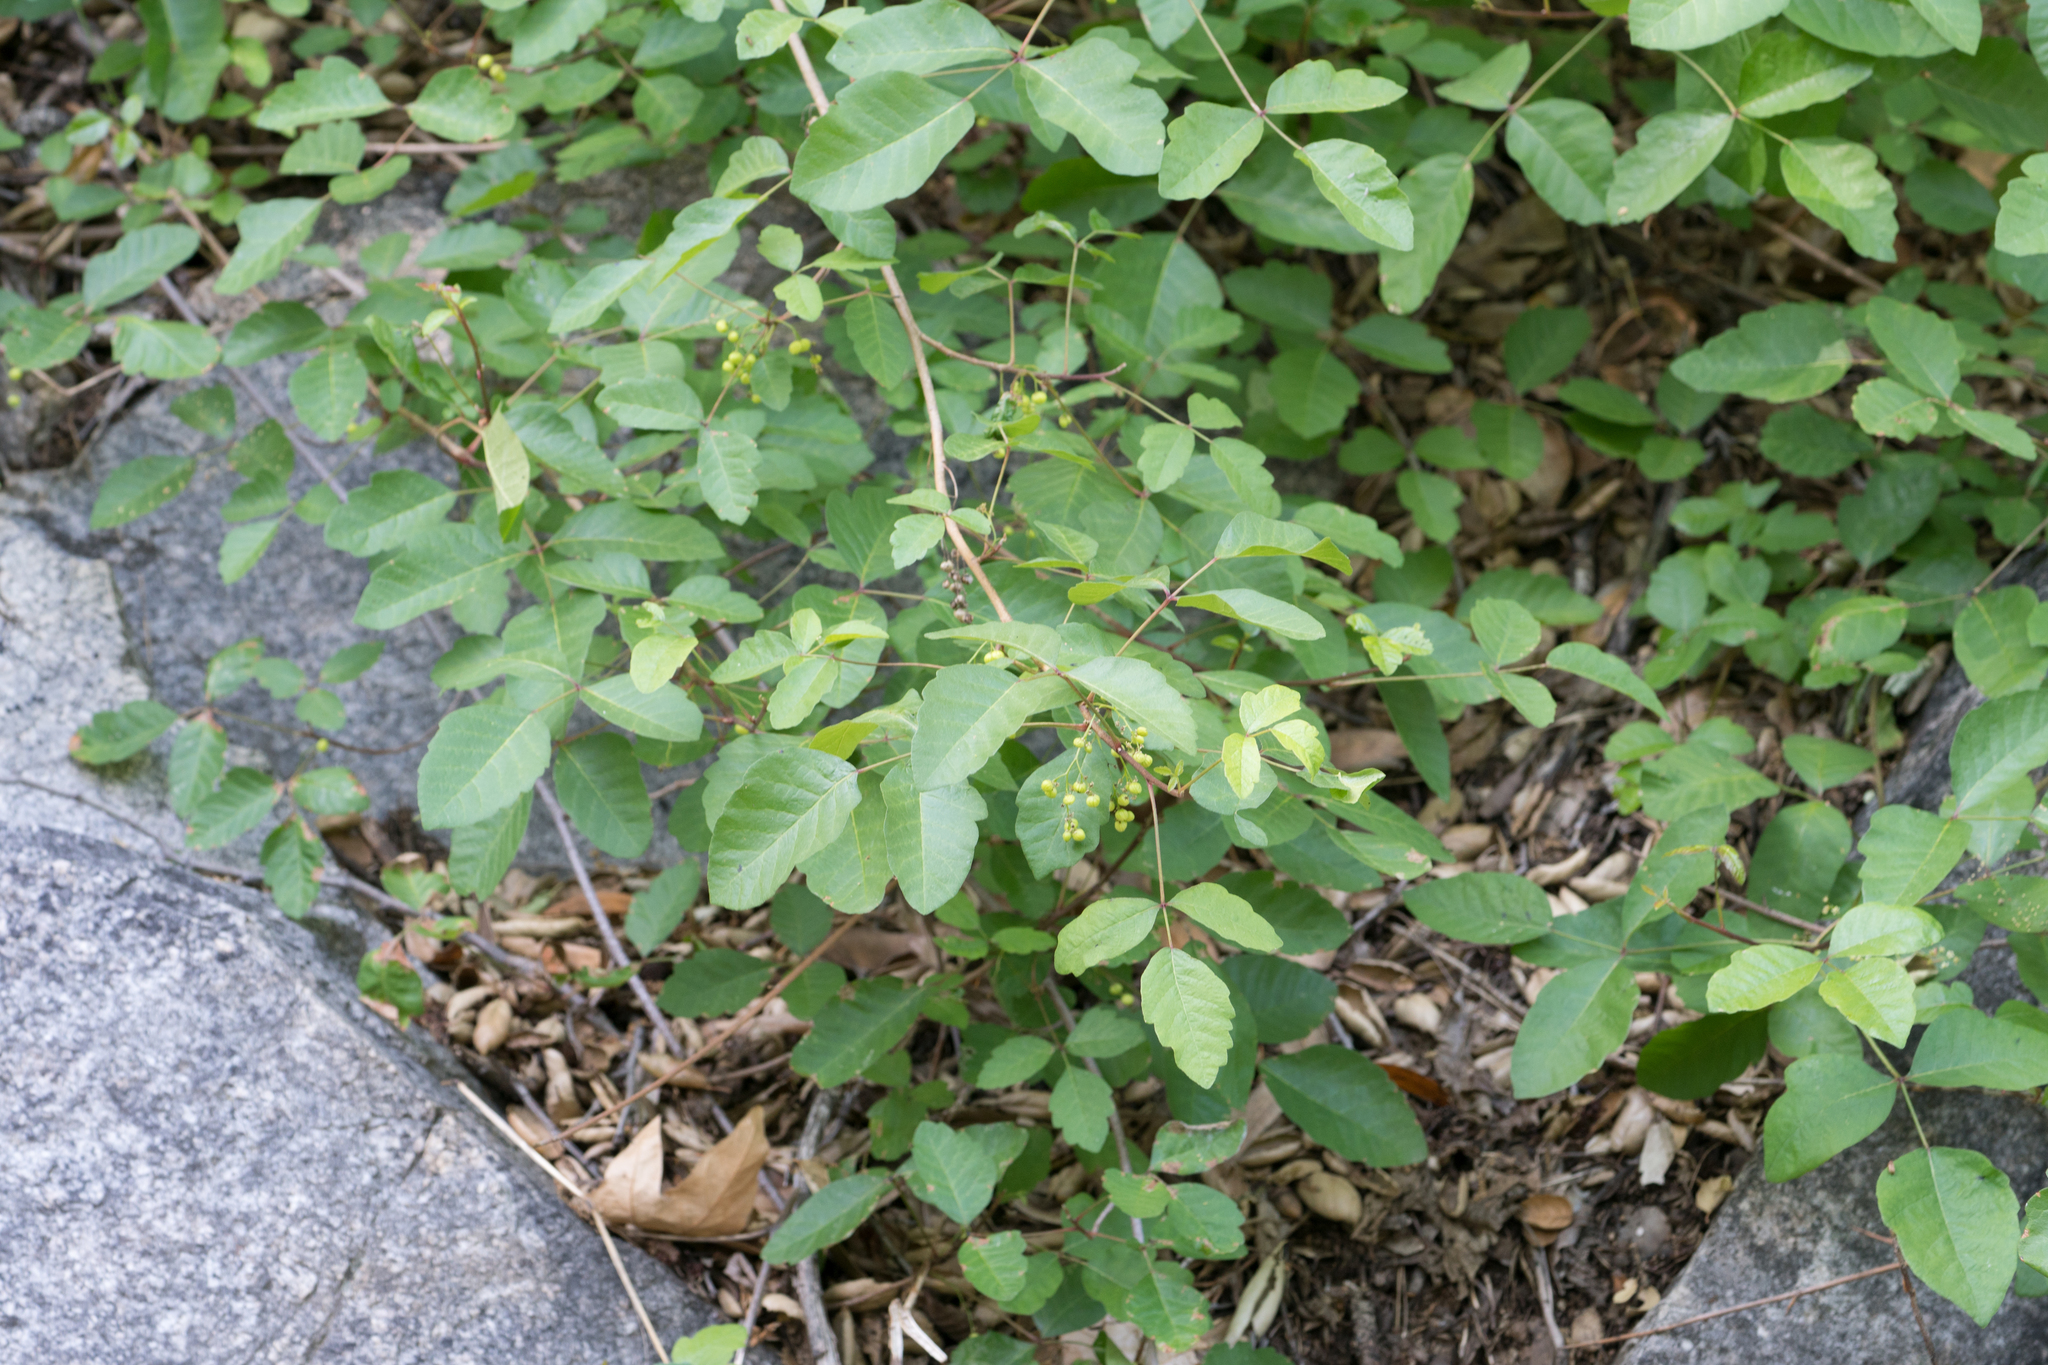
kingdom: Plantae
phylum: Tracheophyta
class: Magnoliopsida
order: Sapindales
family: Anacardiaceae
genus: Toxicodendron
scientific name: Toxicodendron diversilobum
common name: Pacific poison-oak
